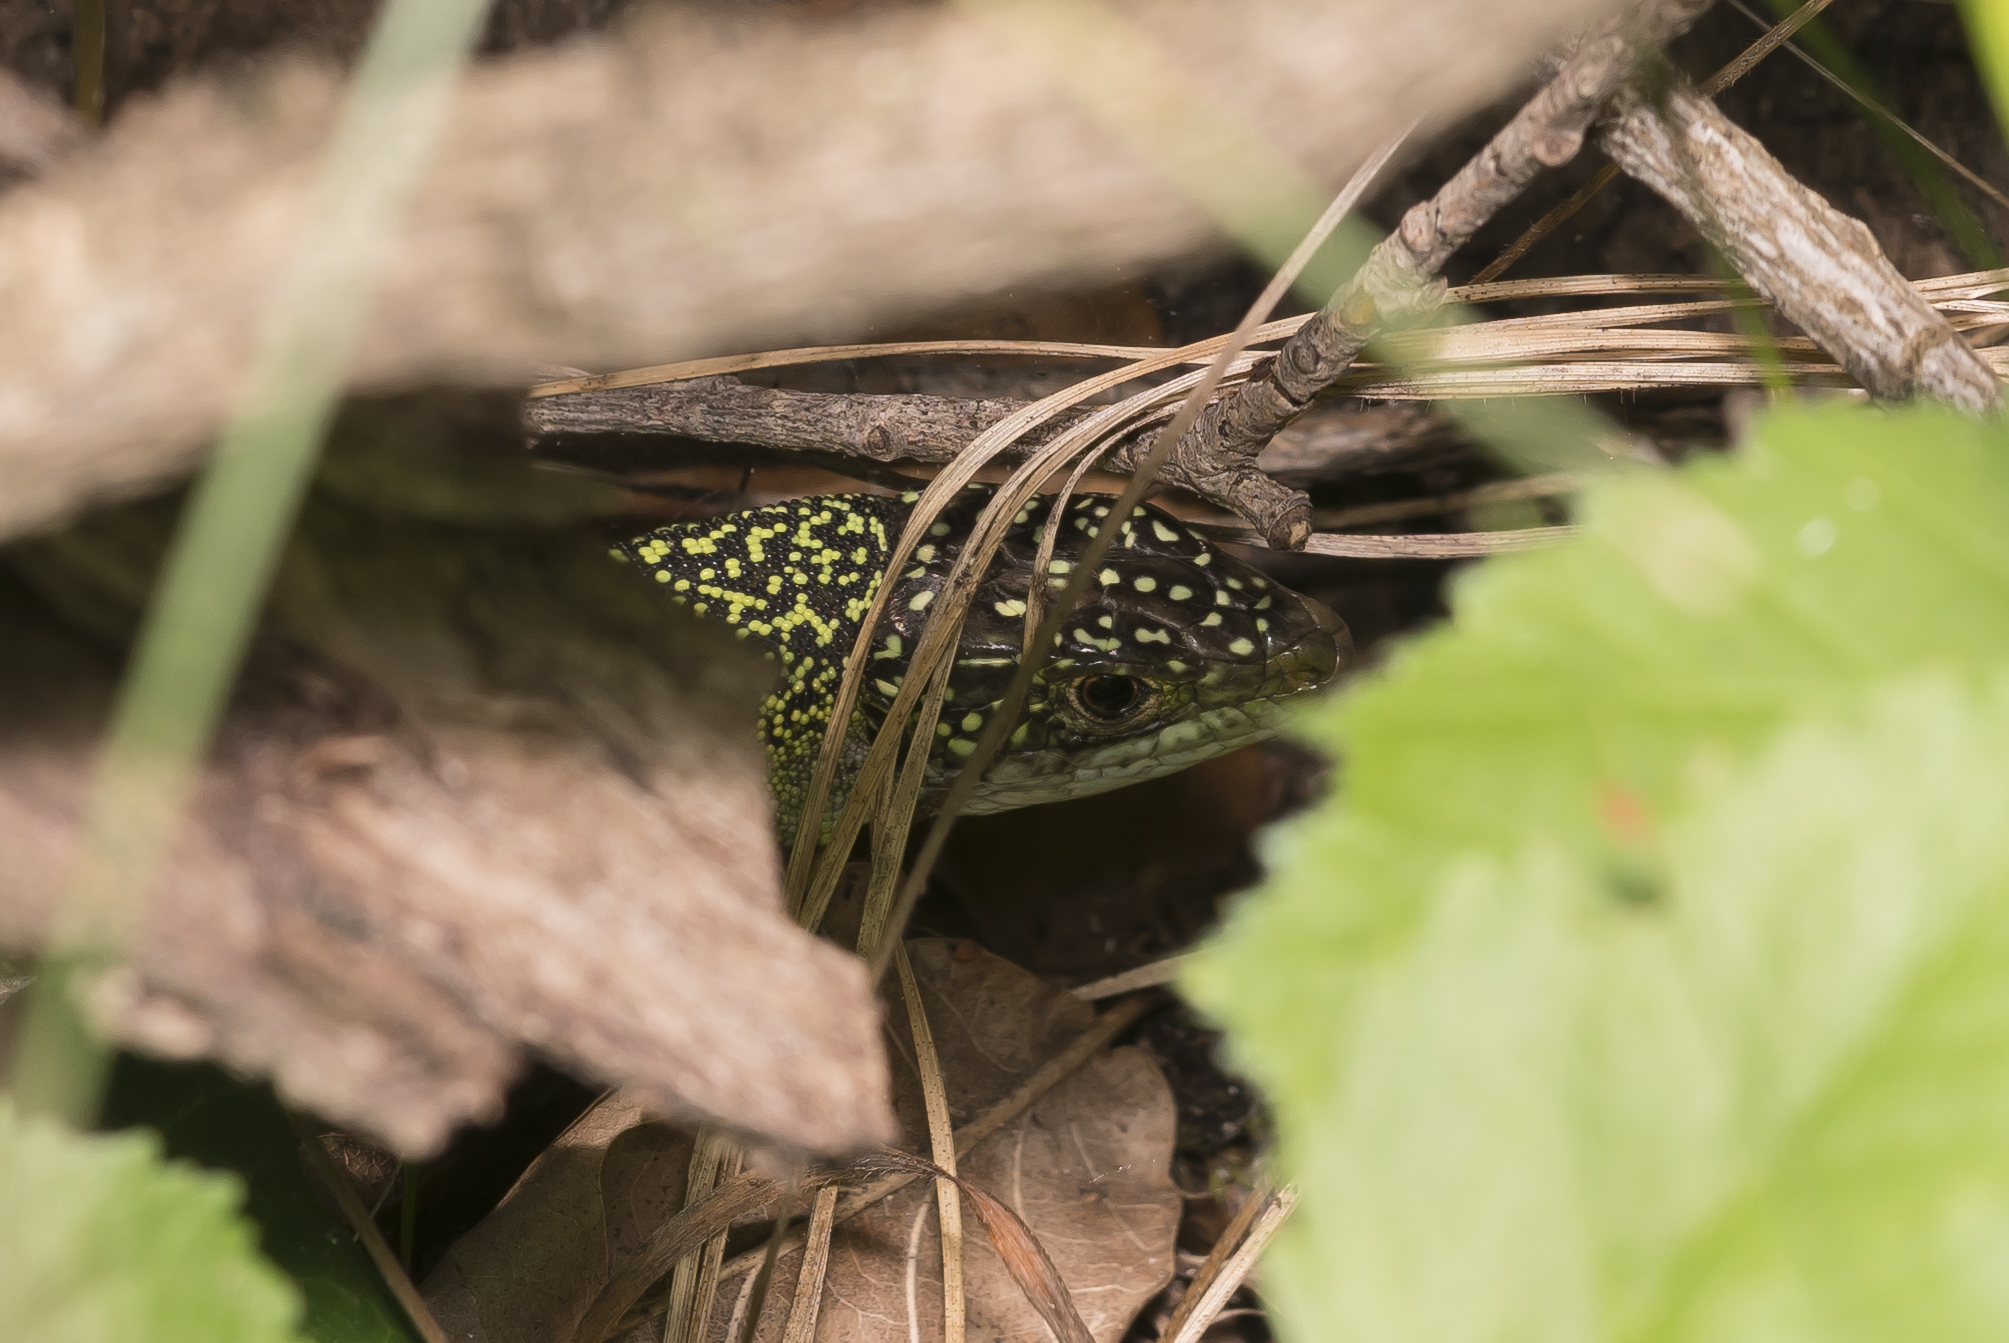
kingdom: Animalia
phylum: Chordata
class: Squamata
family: Lacertidae
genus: Lacerta
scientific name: Lacerta bilineata
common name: Western green lizard
